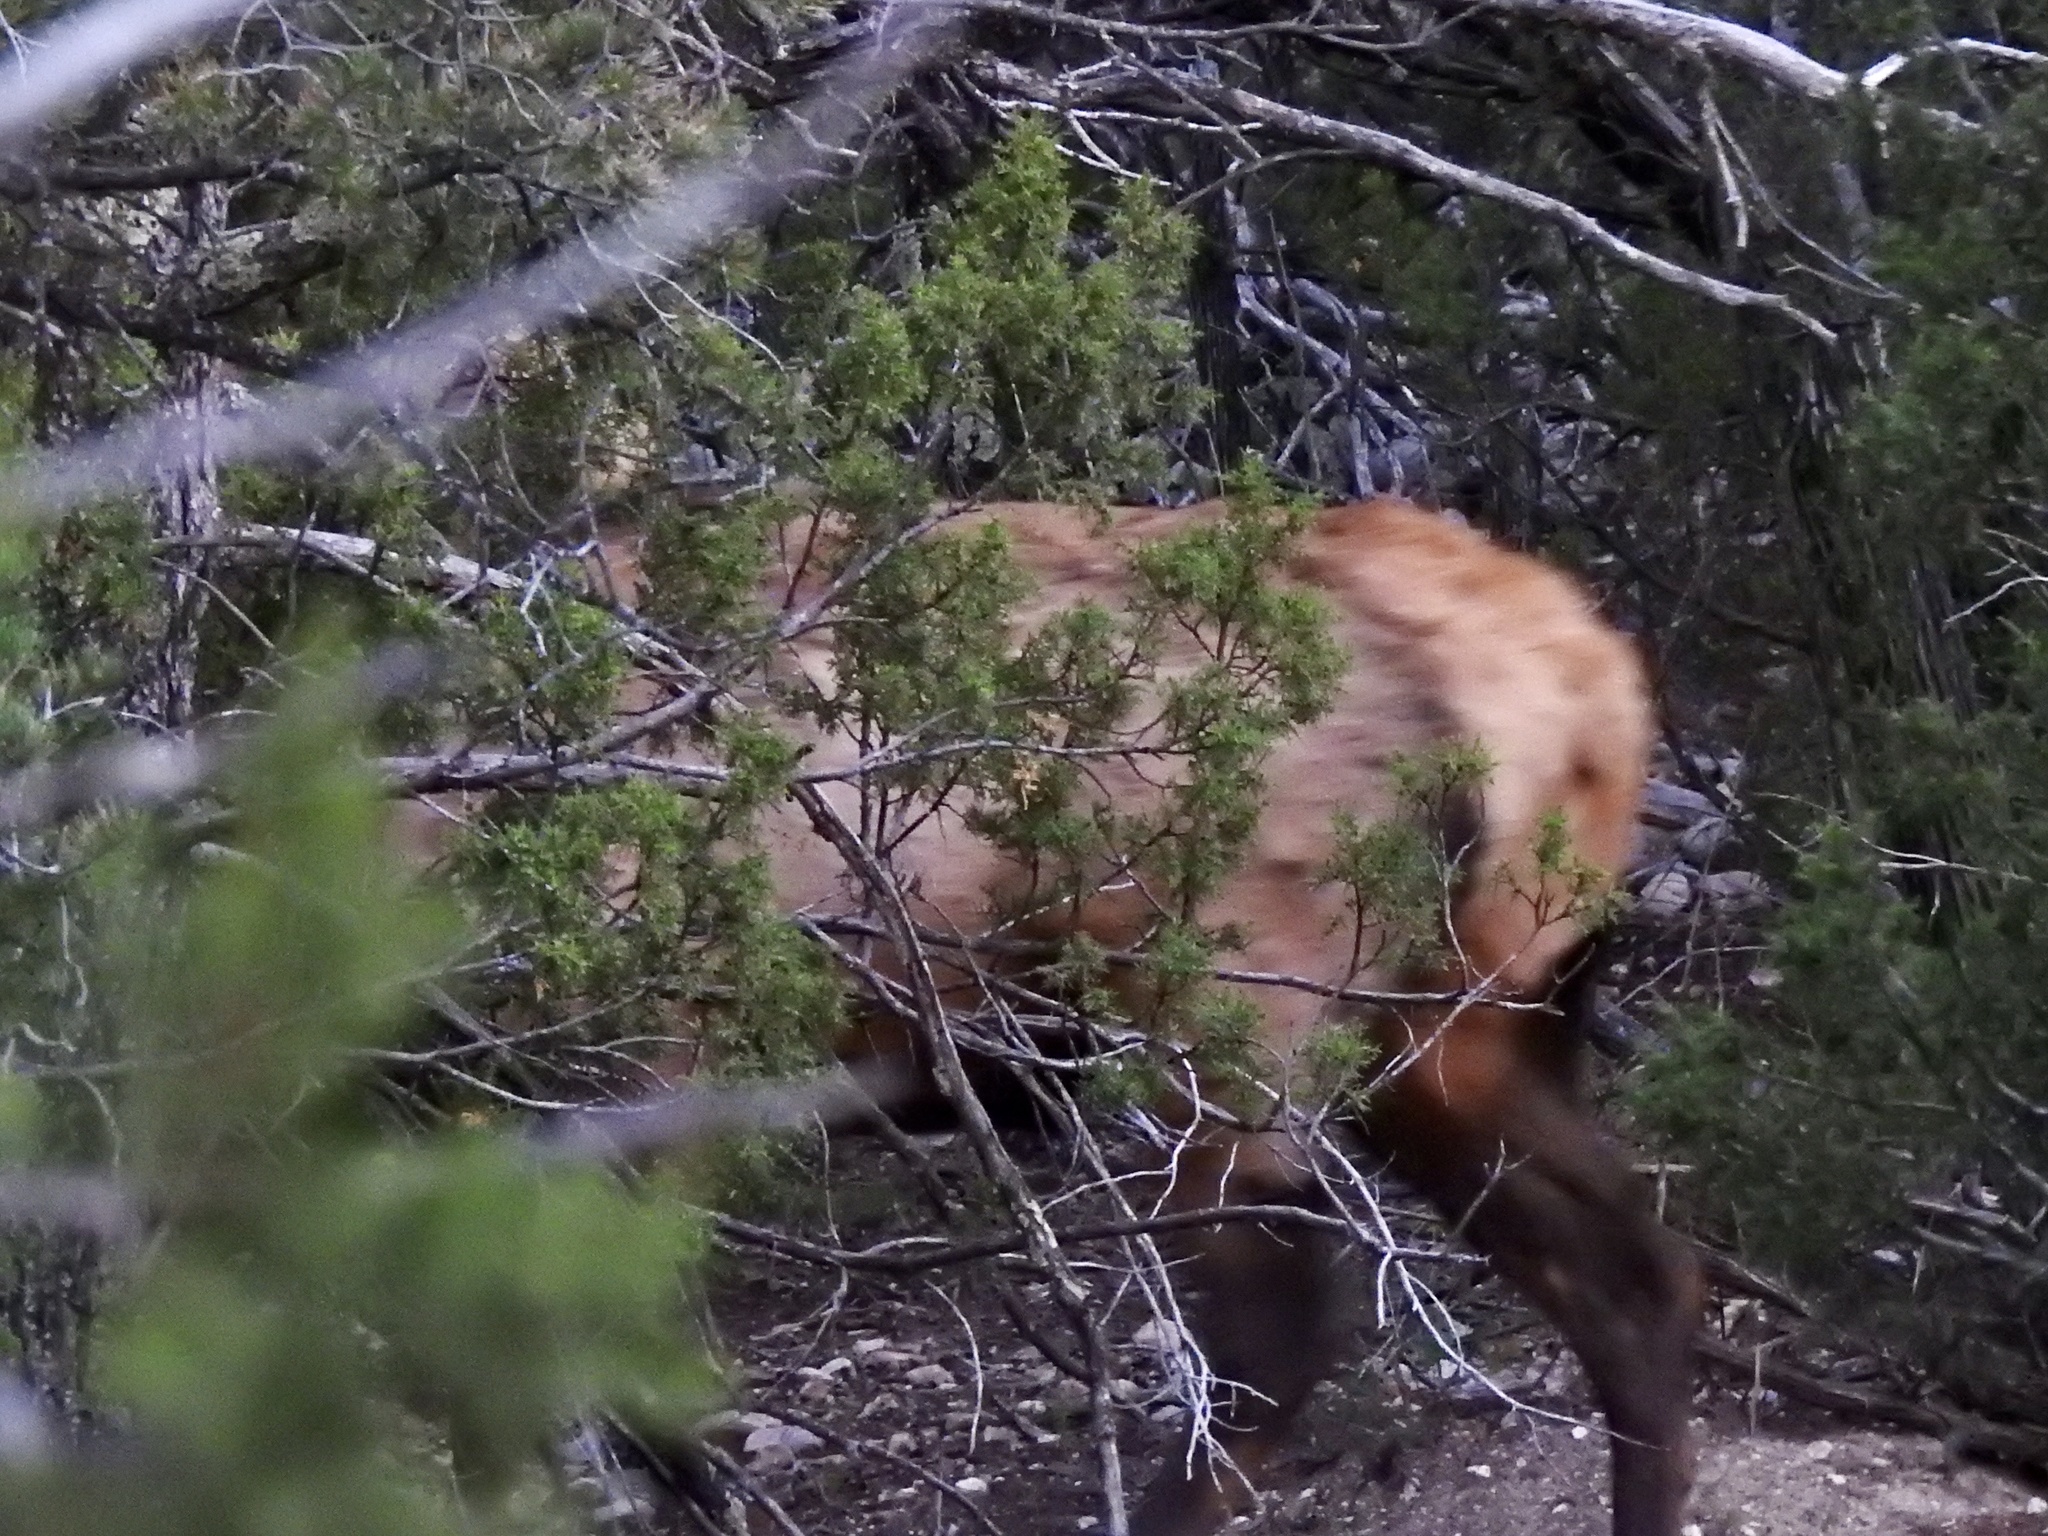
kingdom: Animalia
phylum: Chordata
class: Mammalia
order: Artiodactyla
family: Cervidae
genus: Cervus
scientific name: Cervus elaphus
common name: Red deer
